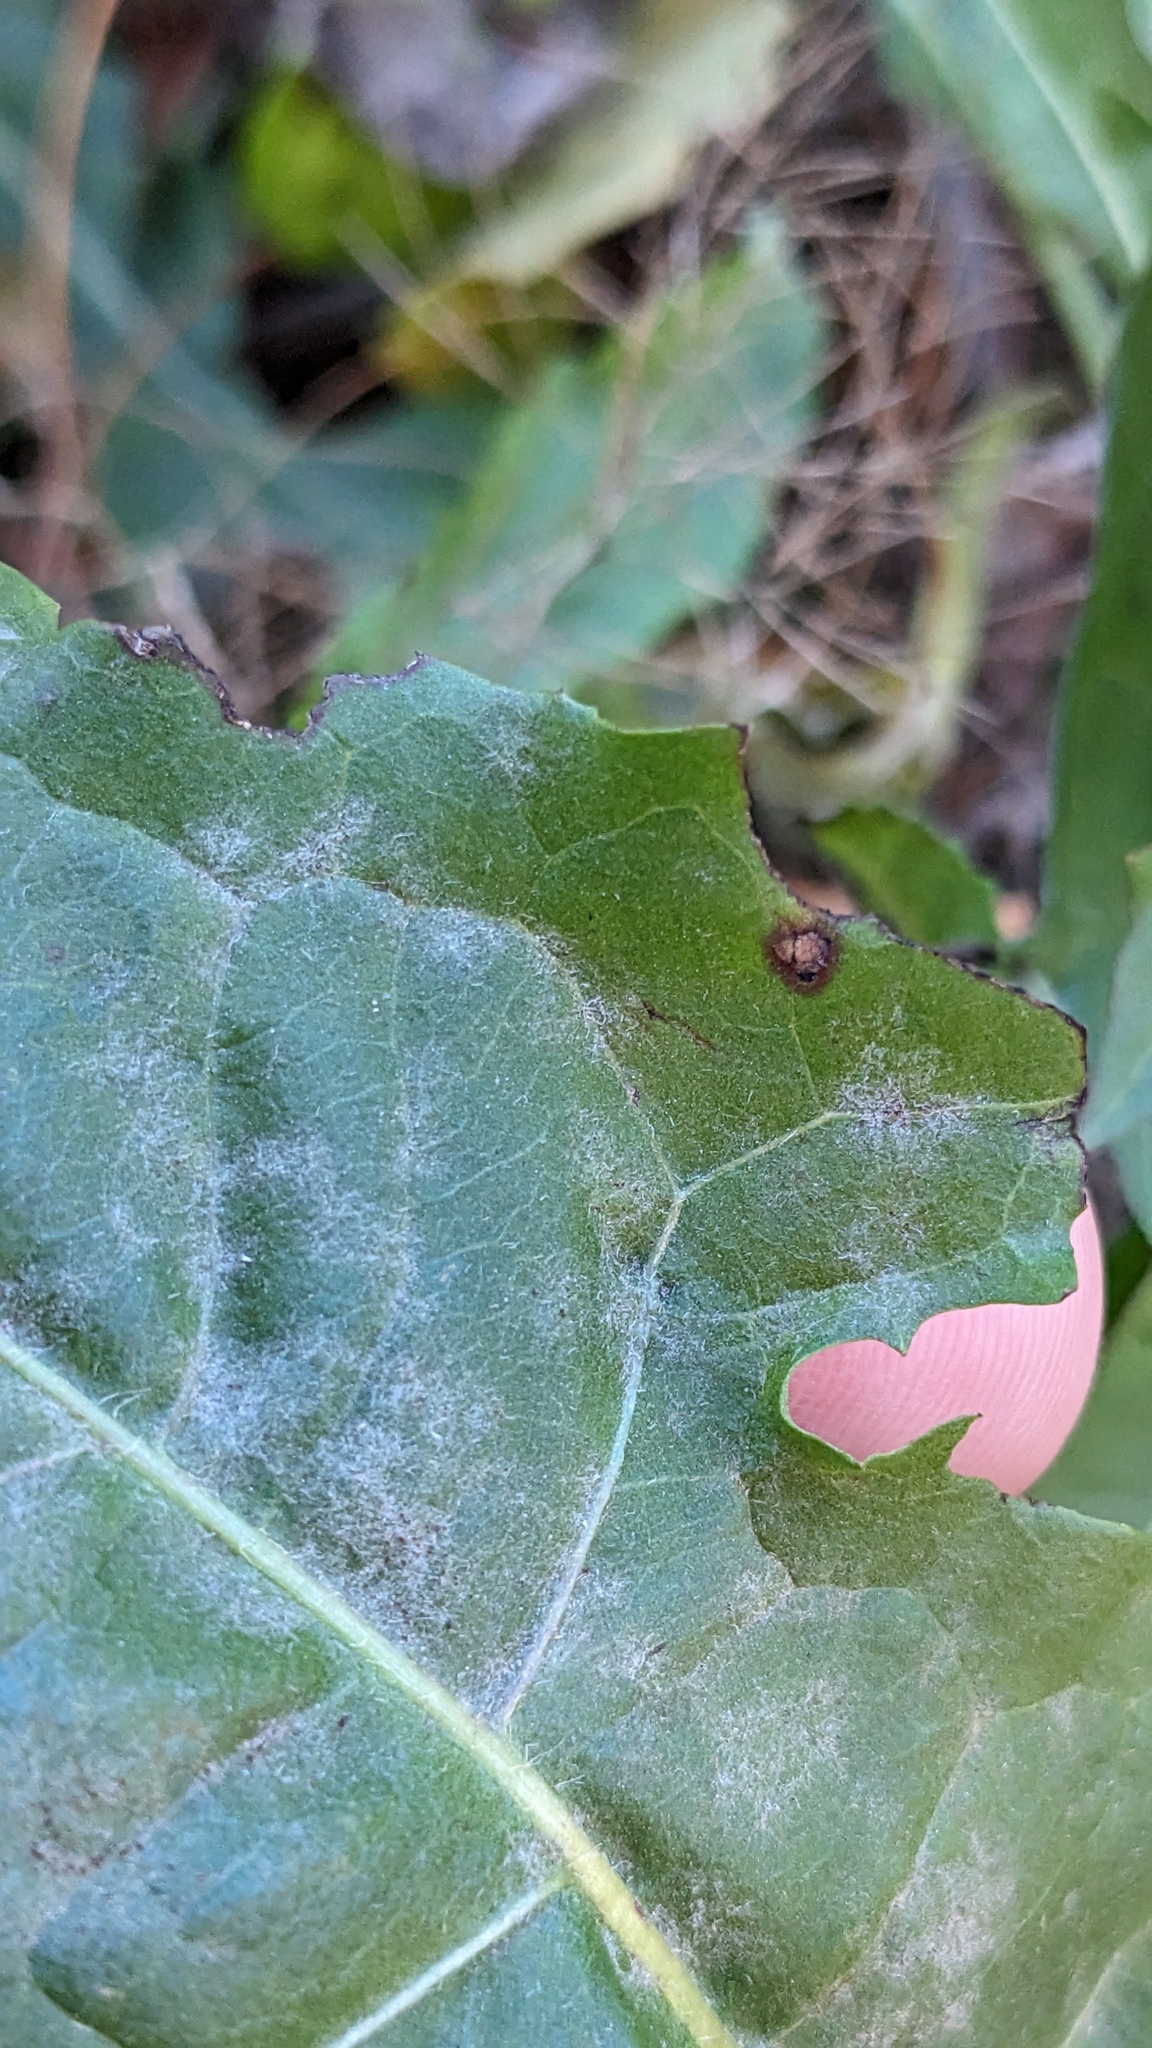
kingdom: Fungi
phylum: Ascomycota
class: Leotiomycetes
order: Helotiales
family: Erysiphaceae
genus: Podosphaera
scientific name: Podosphaera erigerontis-canadensis
